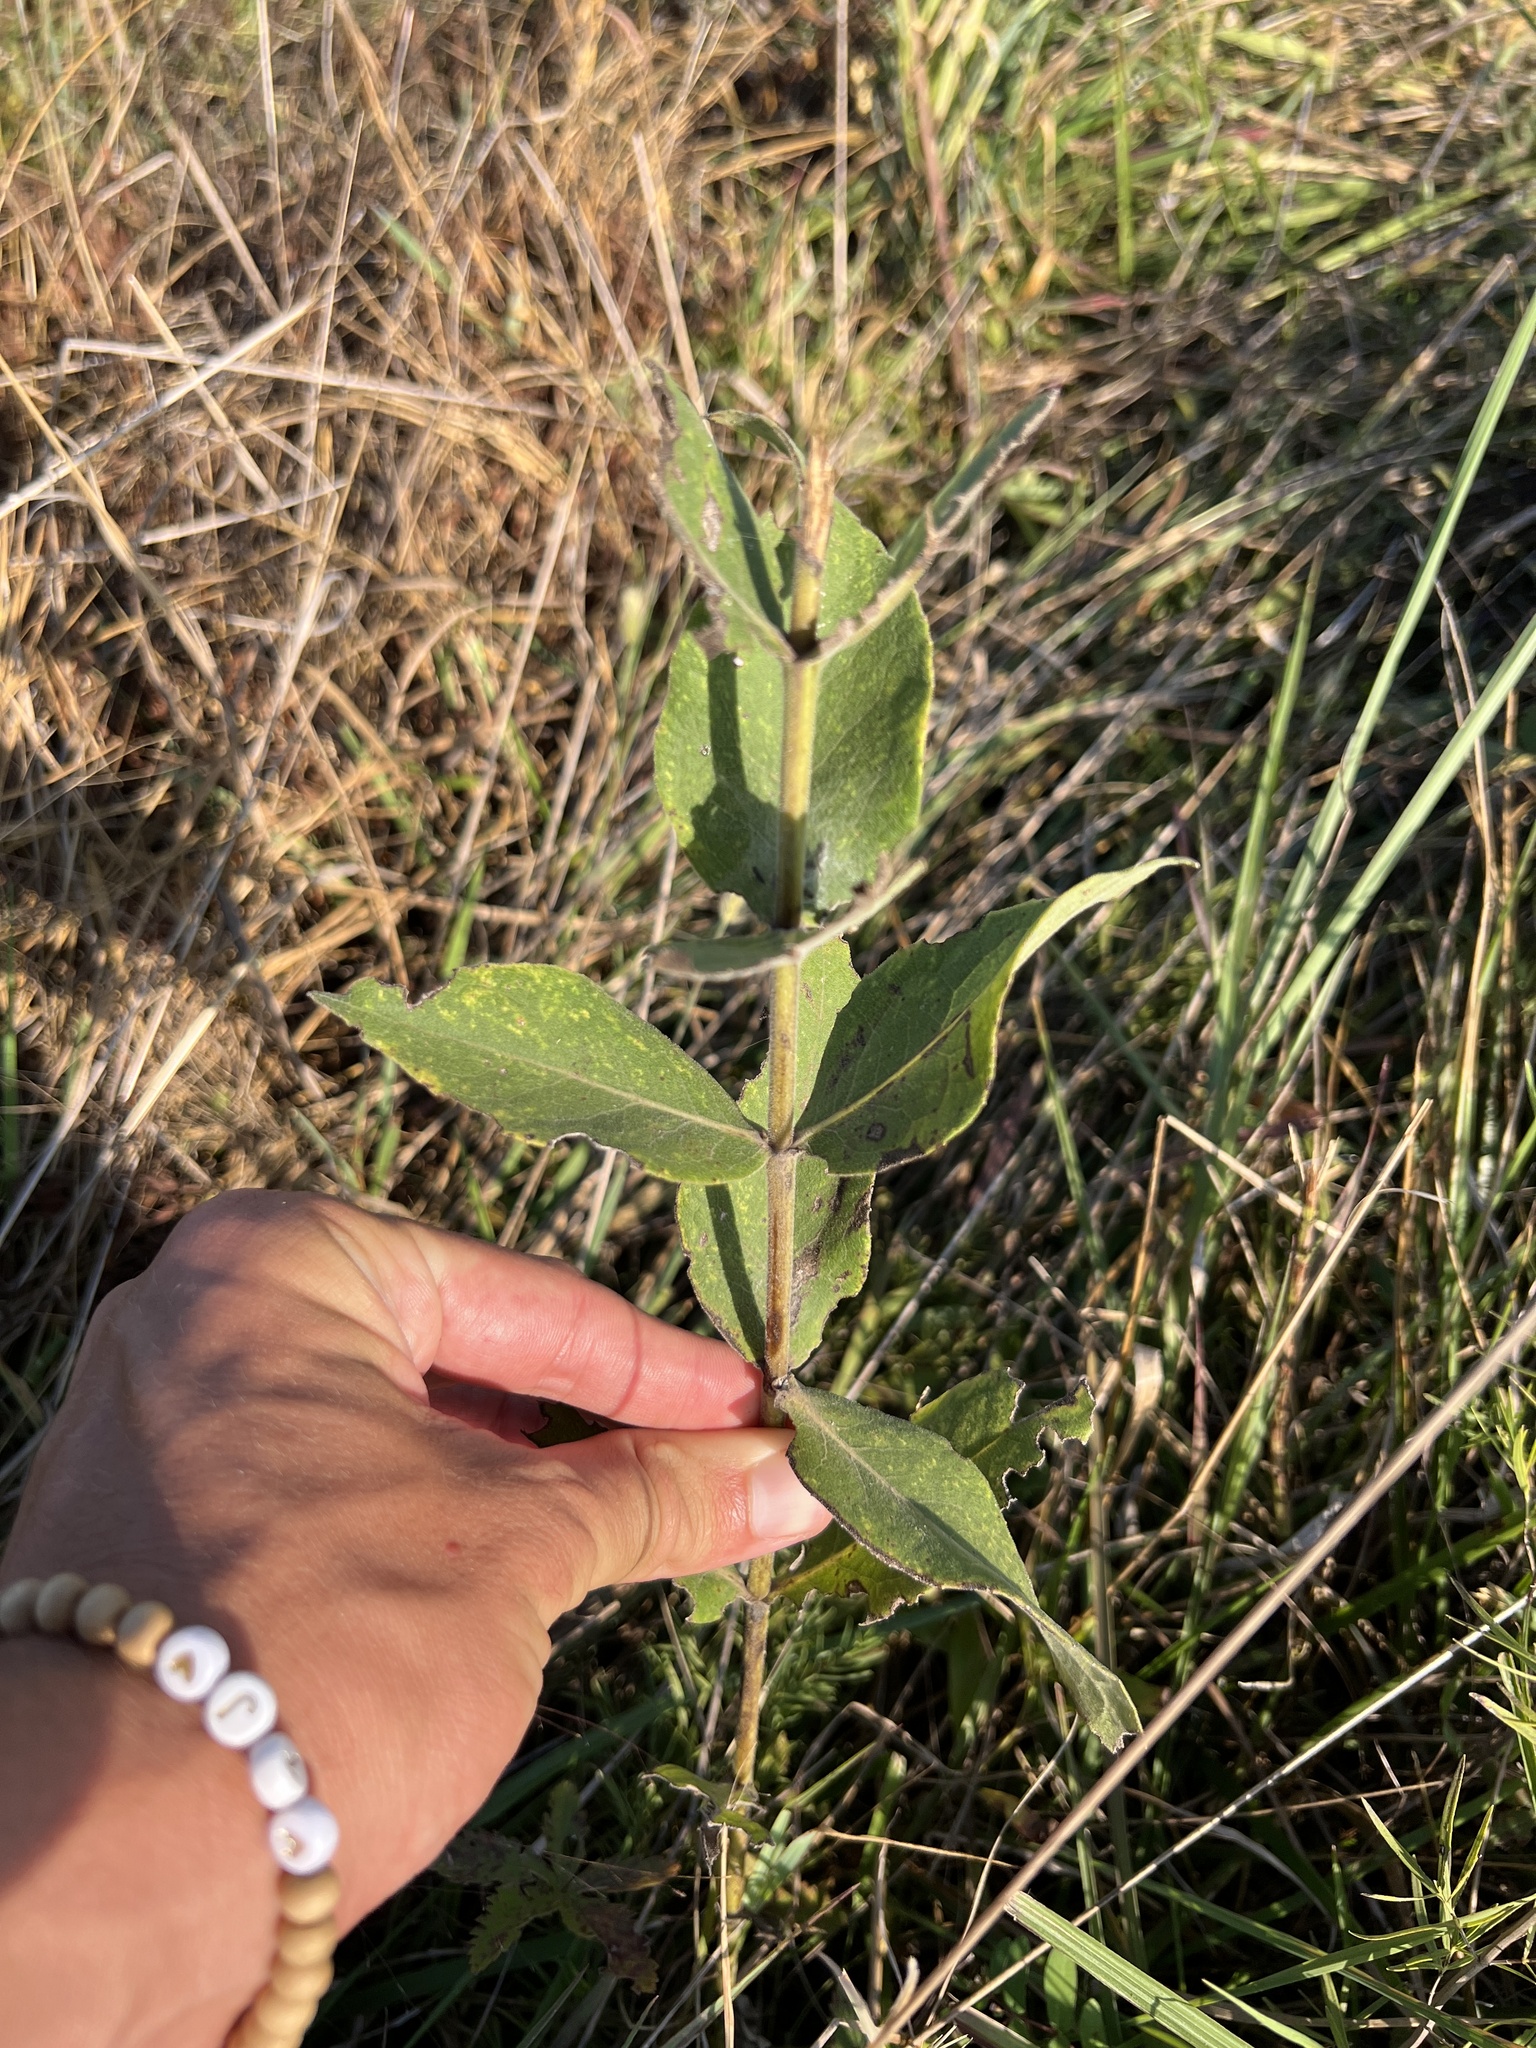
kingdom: Plantae
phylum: Tracheophyta
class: Magnoliopsida
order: Asterales
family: Asteraceae
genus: Silphium
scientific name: Silphium integrifolium
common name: Whole-leaf rosinweed
